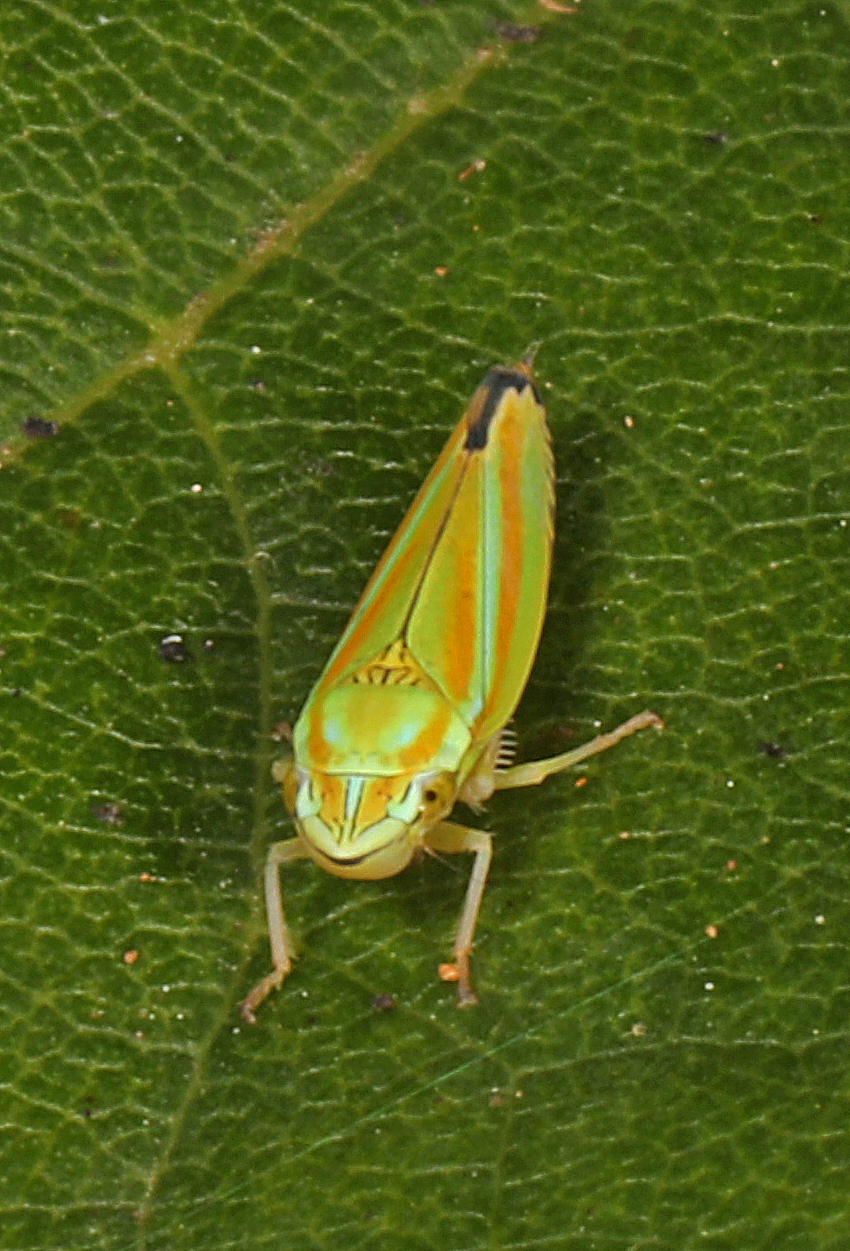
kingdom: Animalia
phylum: Arthropoda
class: Insecta
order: Hemiptera
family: Cicadellidae
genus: Graphocephala
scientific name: Graphocephala versuta
